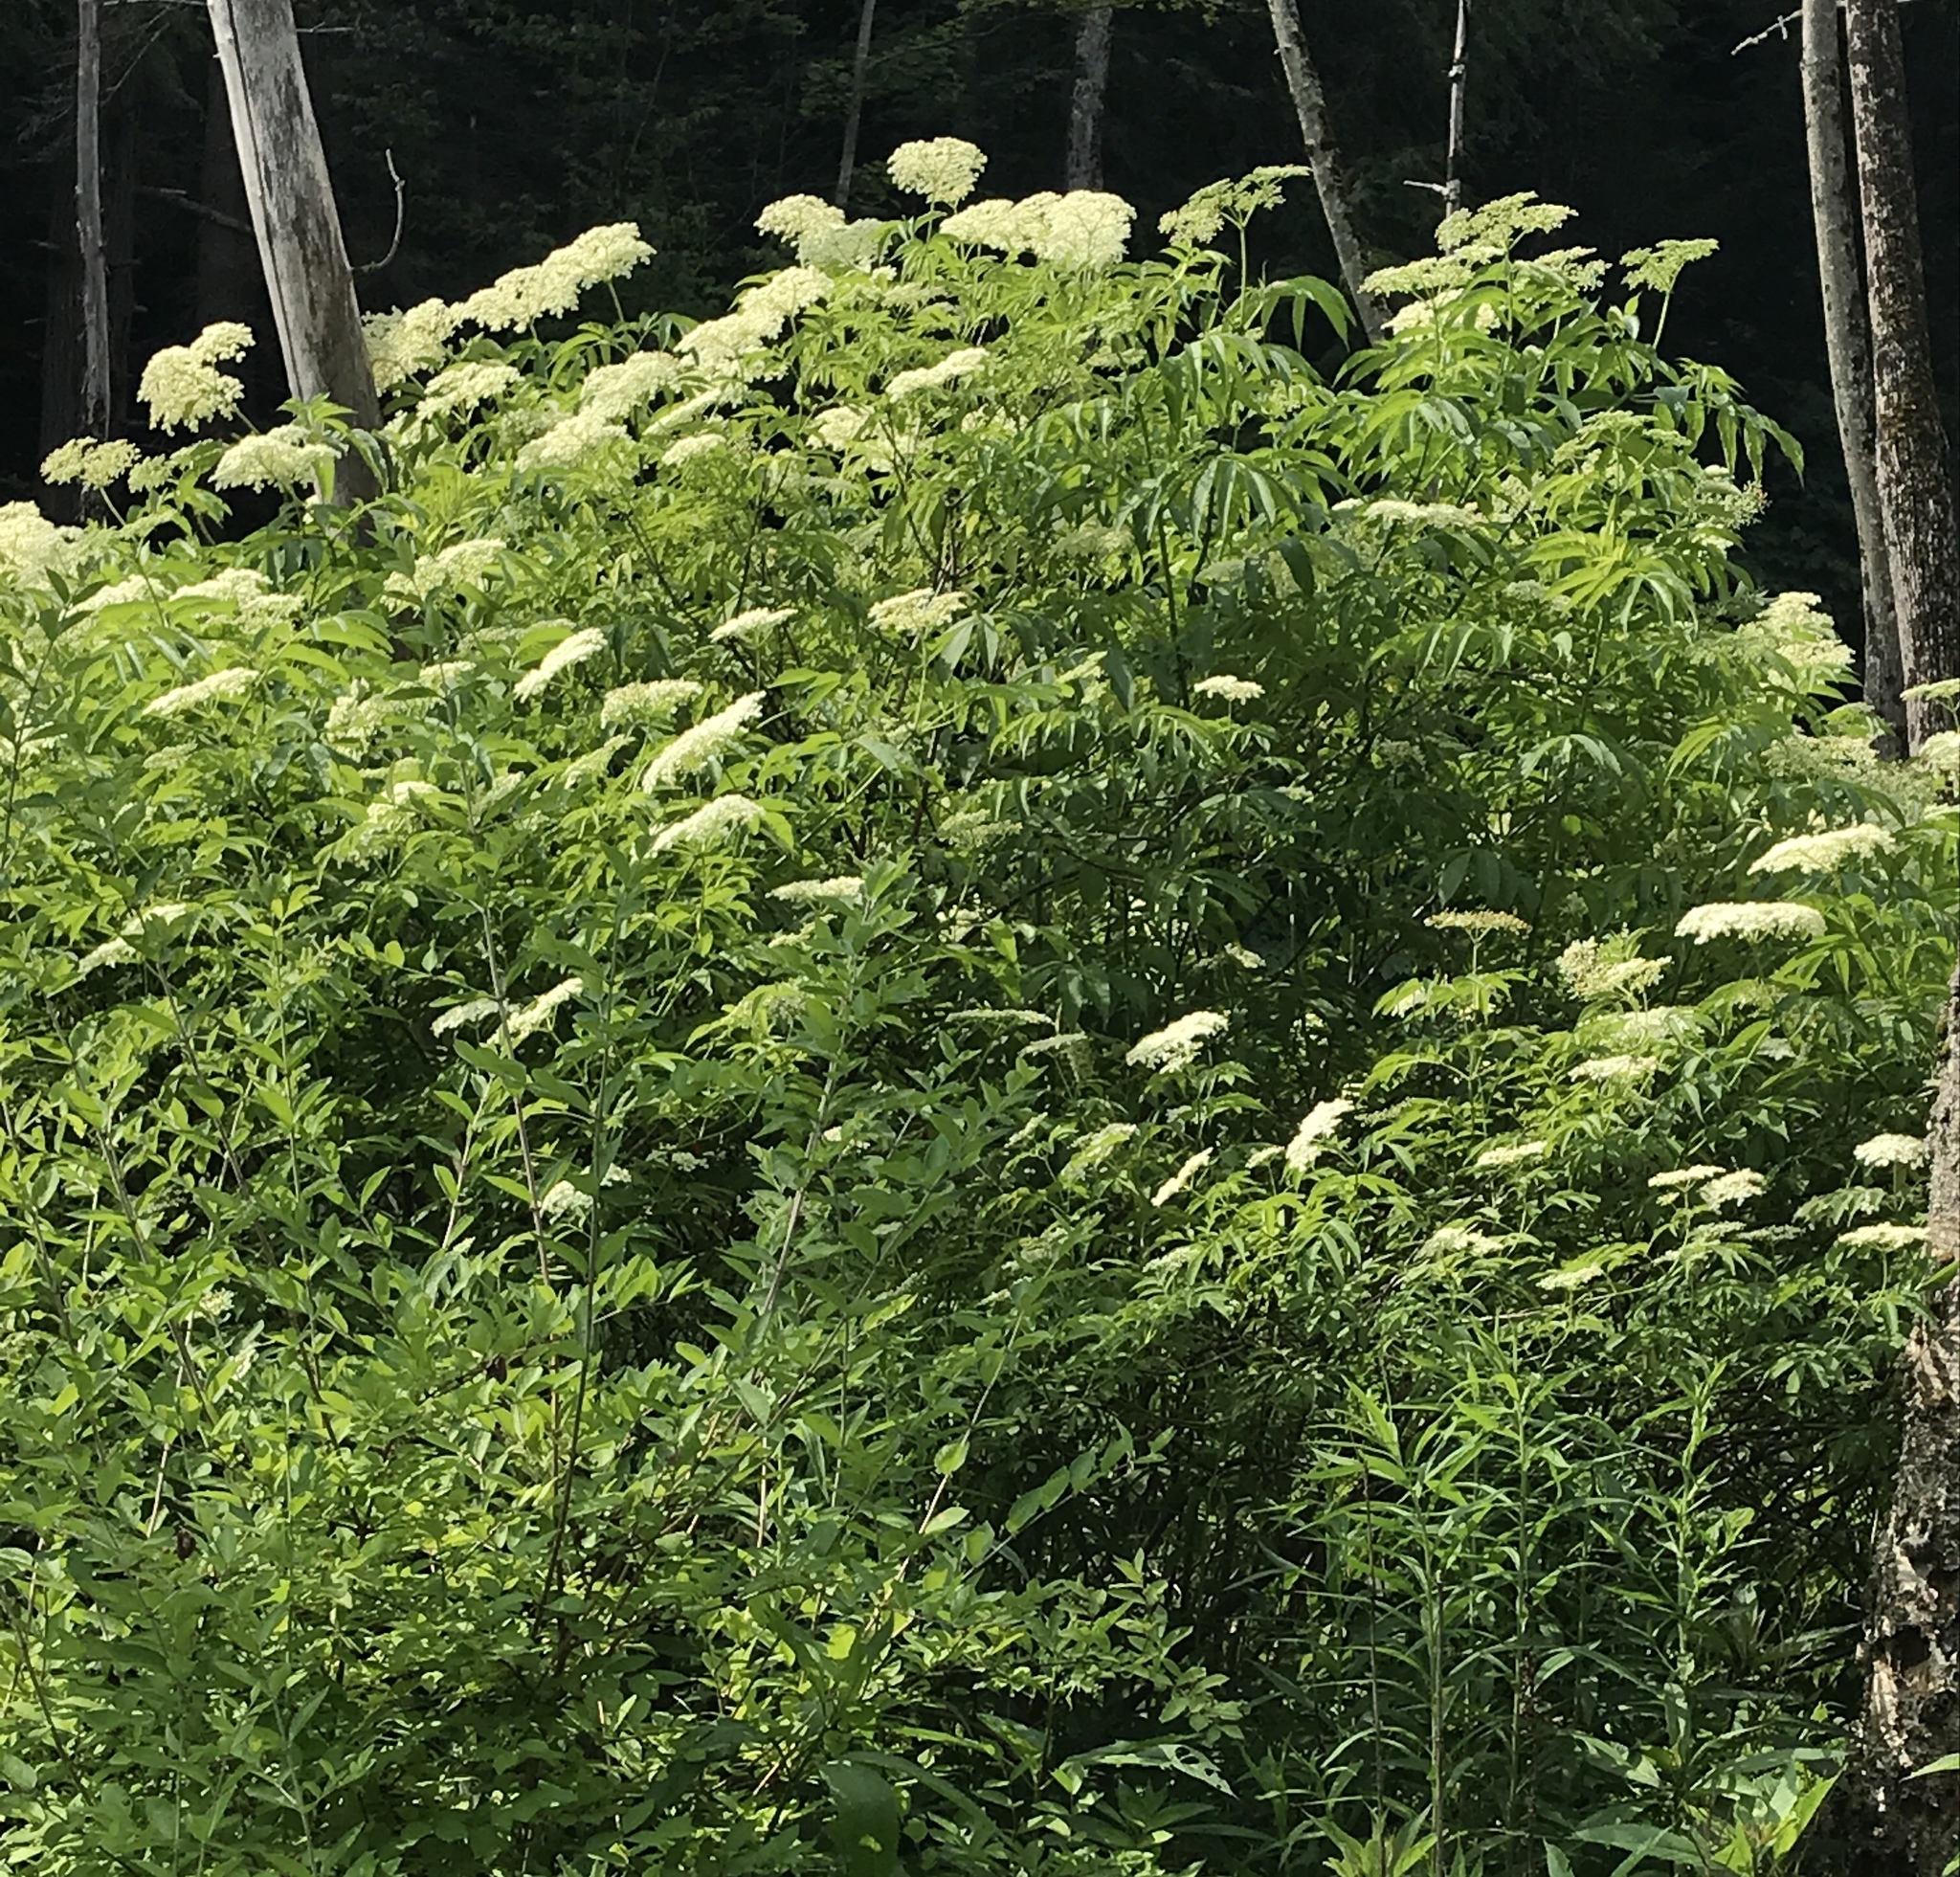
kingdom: Plantae
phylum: Tracheophyta
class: Magnoliopsida
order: Dipsacales
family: Viburnaceae
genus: Sambucus
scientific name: Sambucus canadensis
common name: American elder
